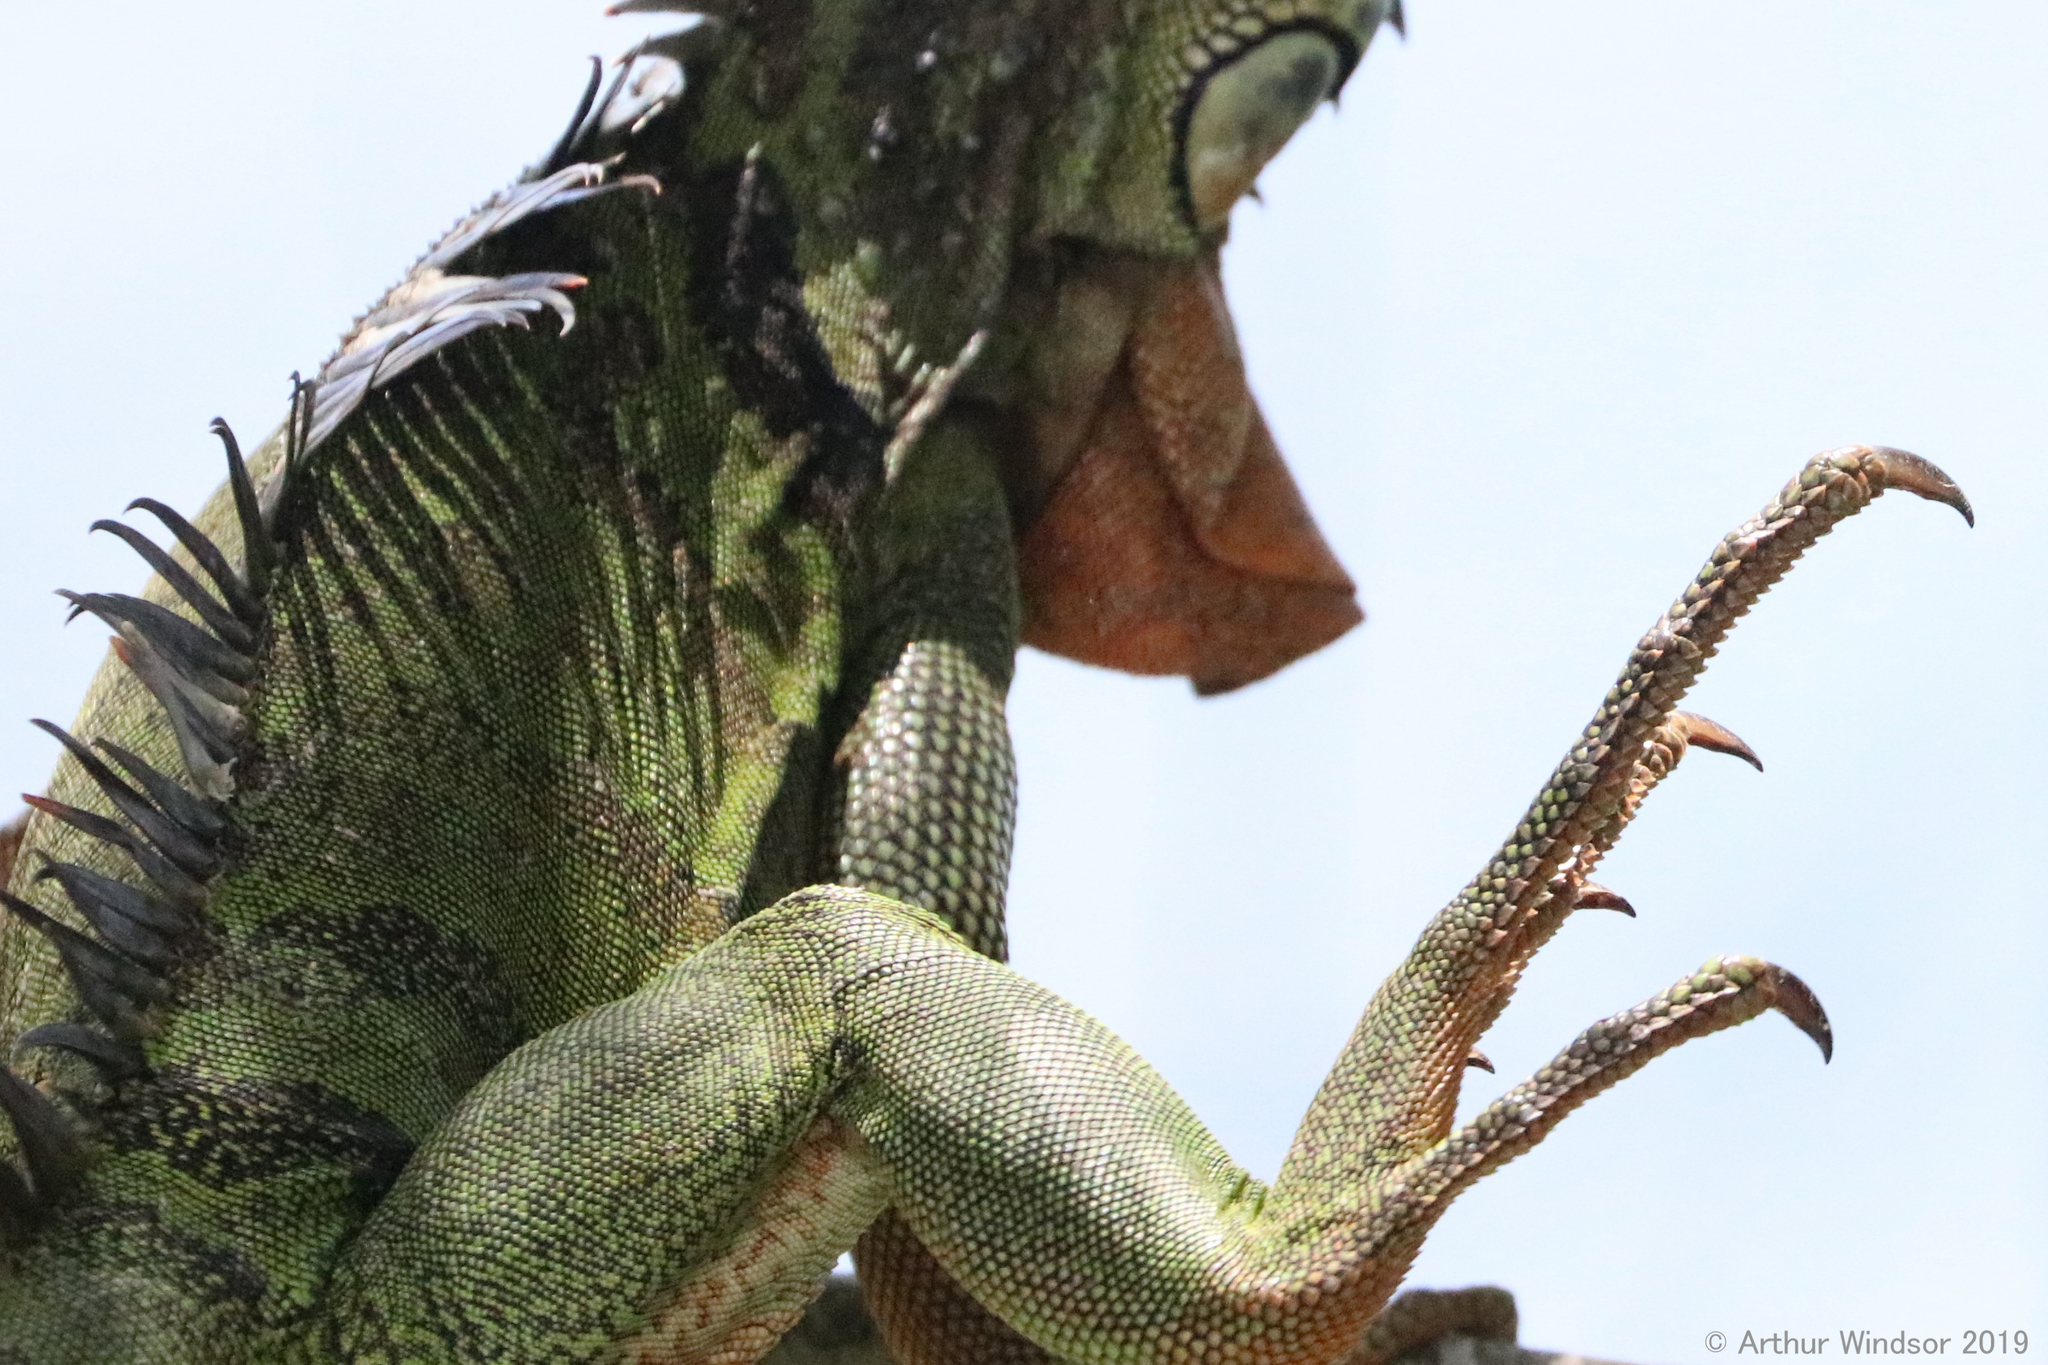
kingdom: Animalia
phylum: Chordata
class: Squamata
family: Iguanidae
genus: Iguana
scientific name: Iguana iguana
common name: Green iguana
